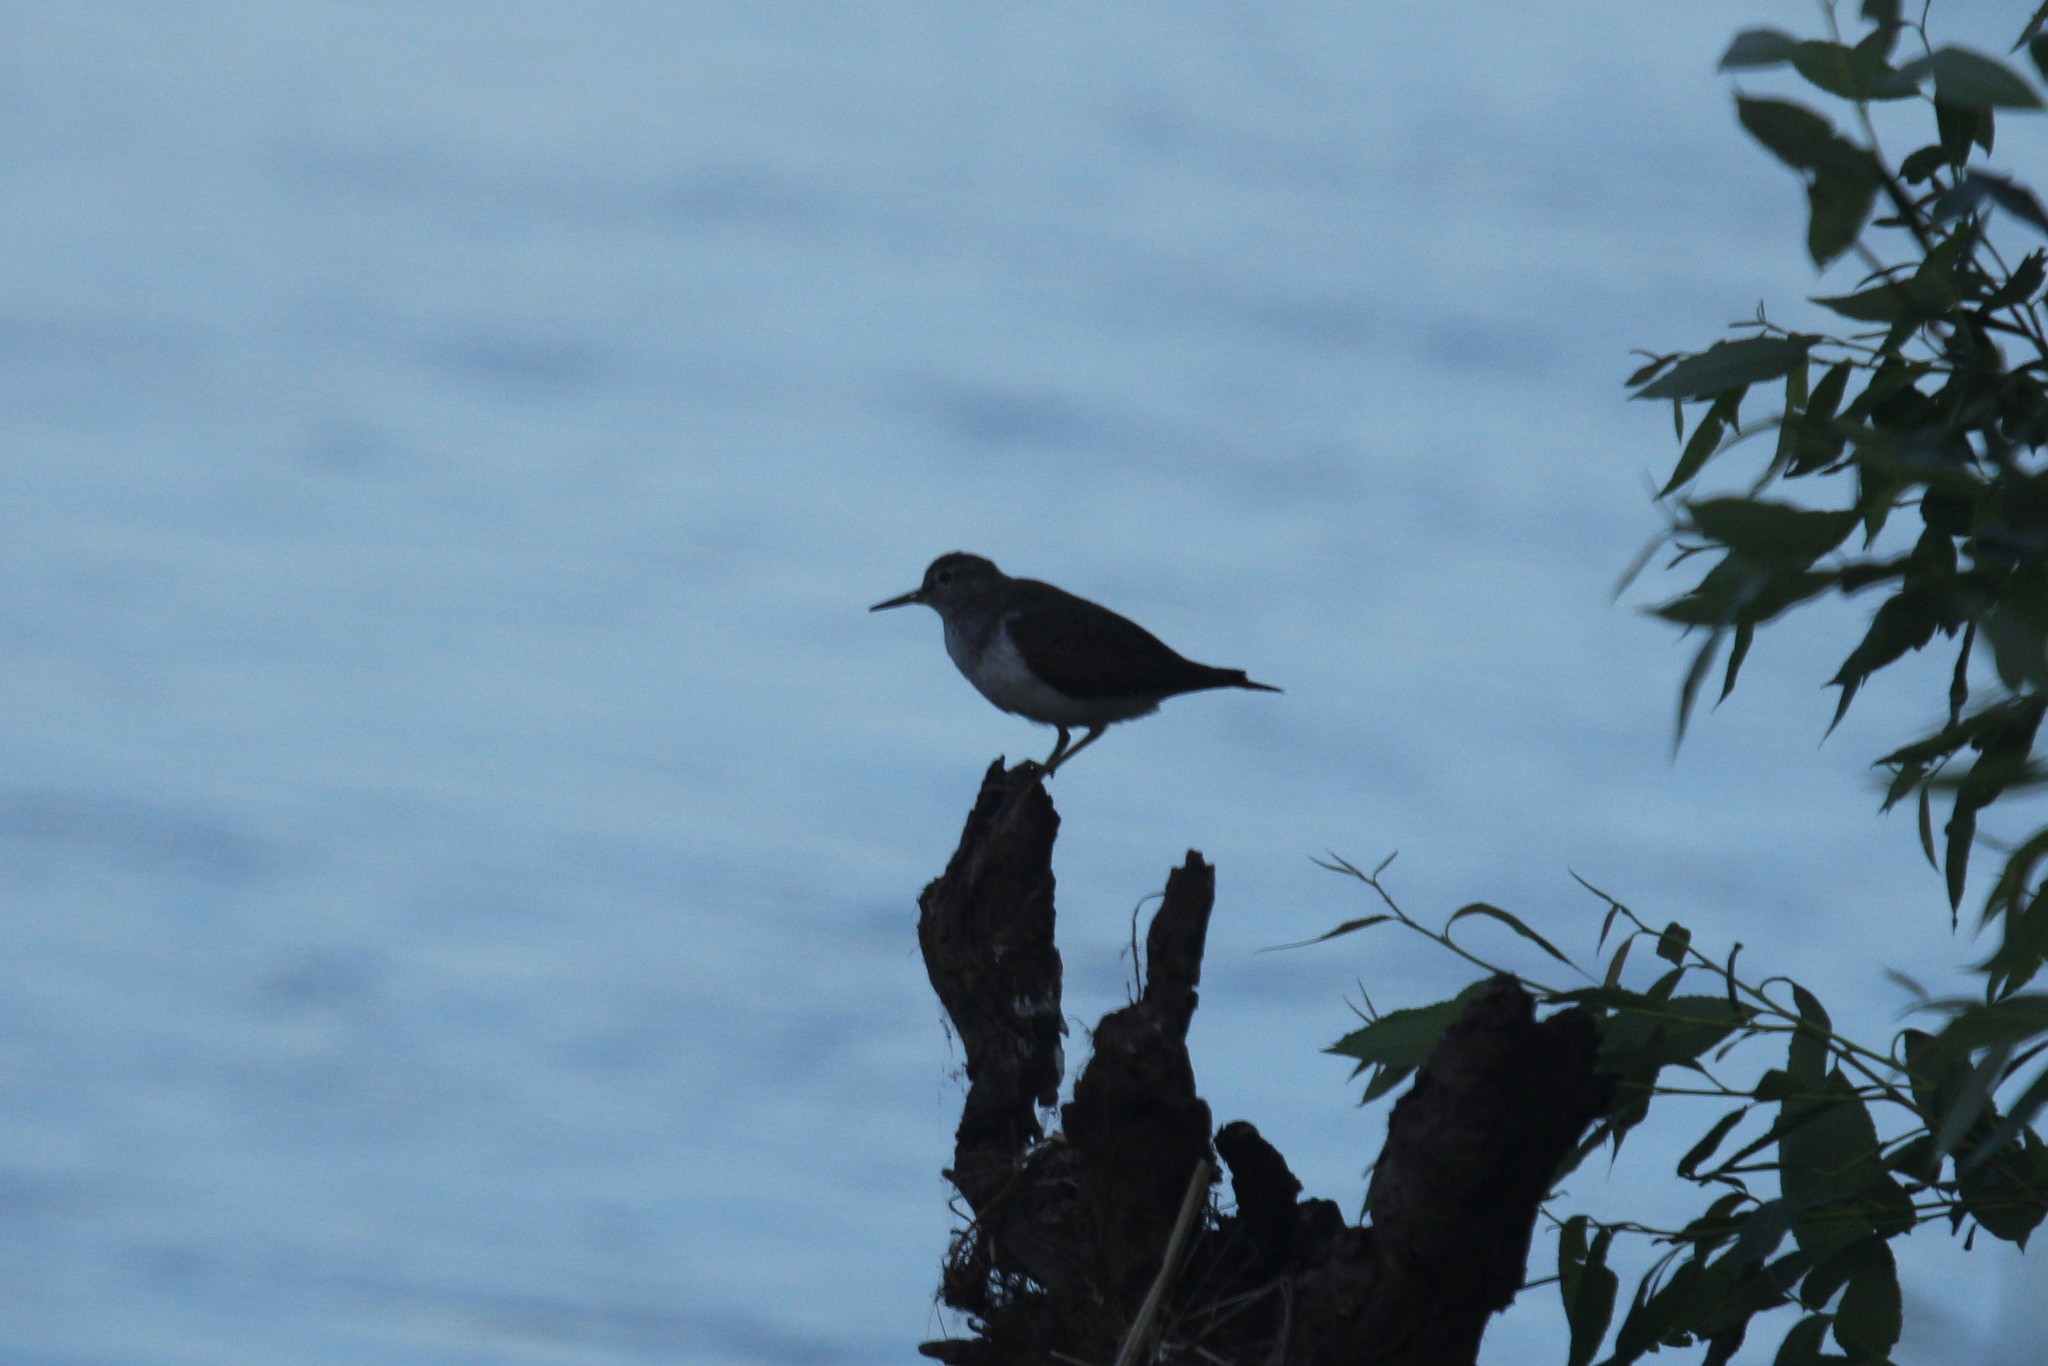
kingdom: Animalia
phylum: Chordata
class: Aves
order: Charadriiformes
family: Scolopacidae
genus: Actitis
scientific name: Actitis hypoleucos
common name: Common sandpiper
